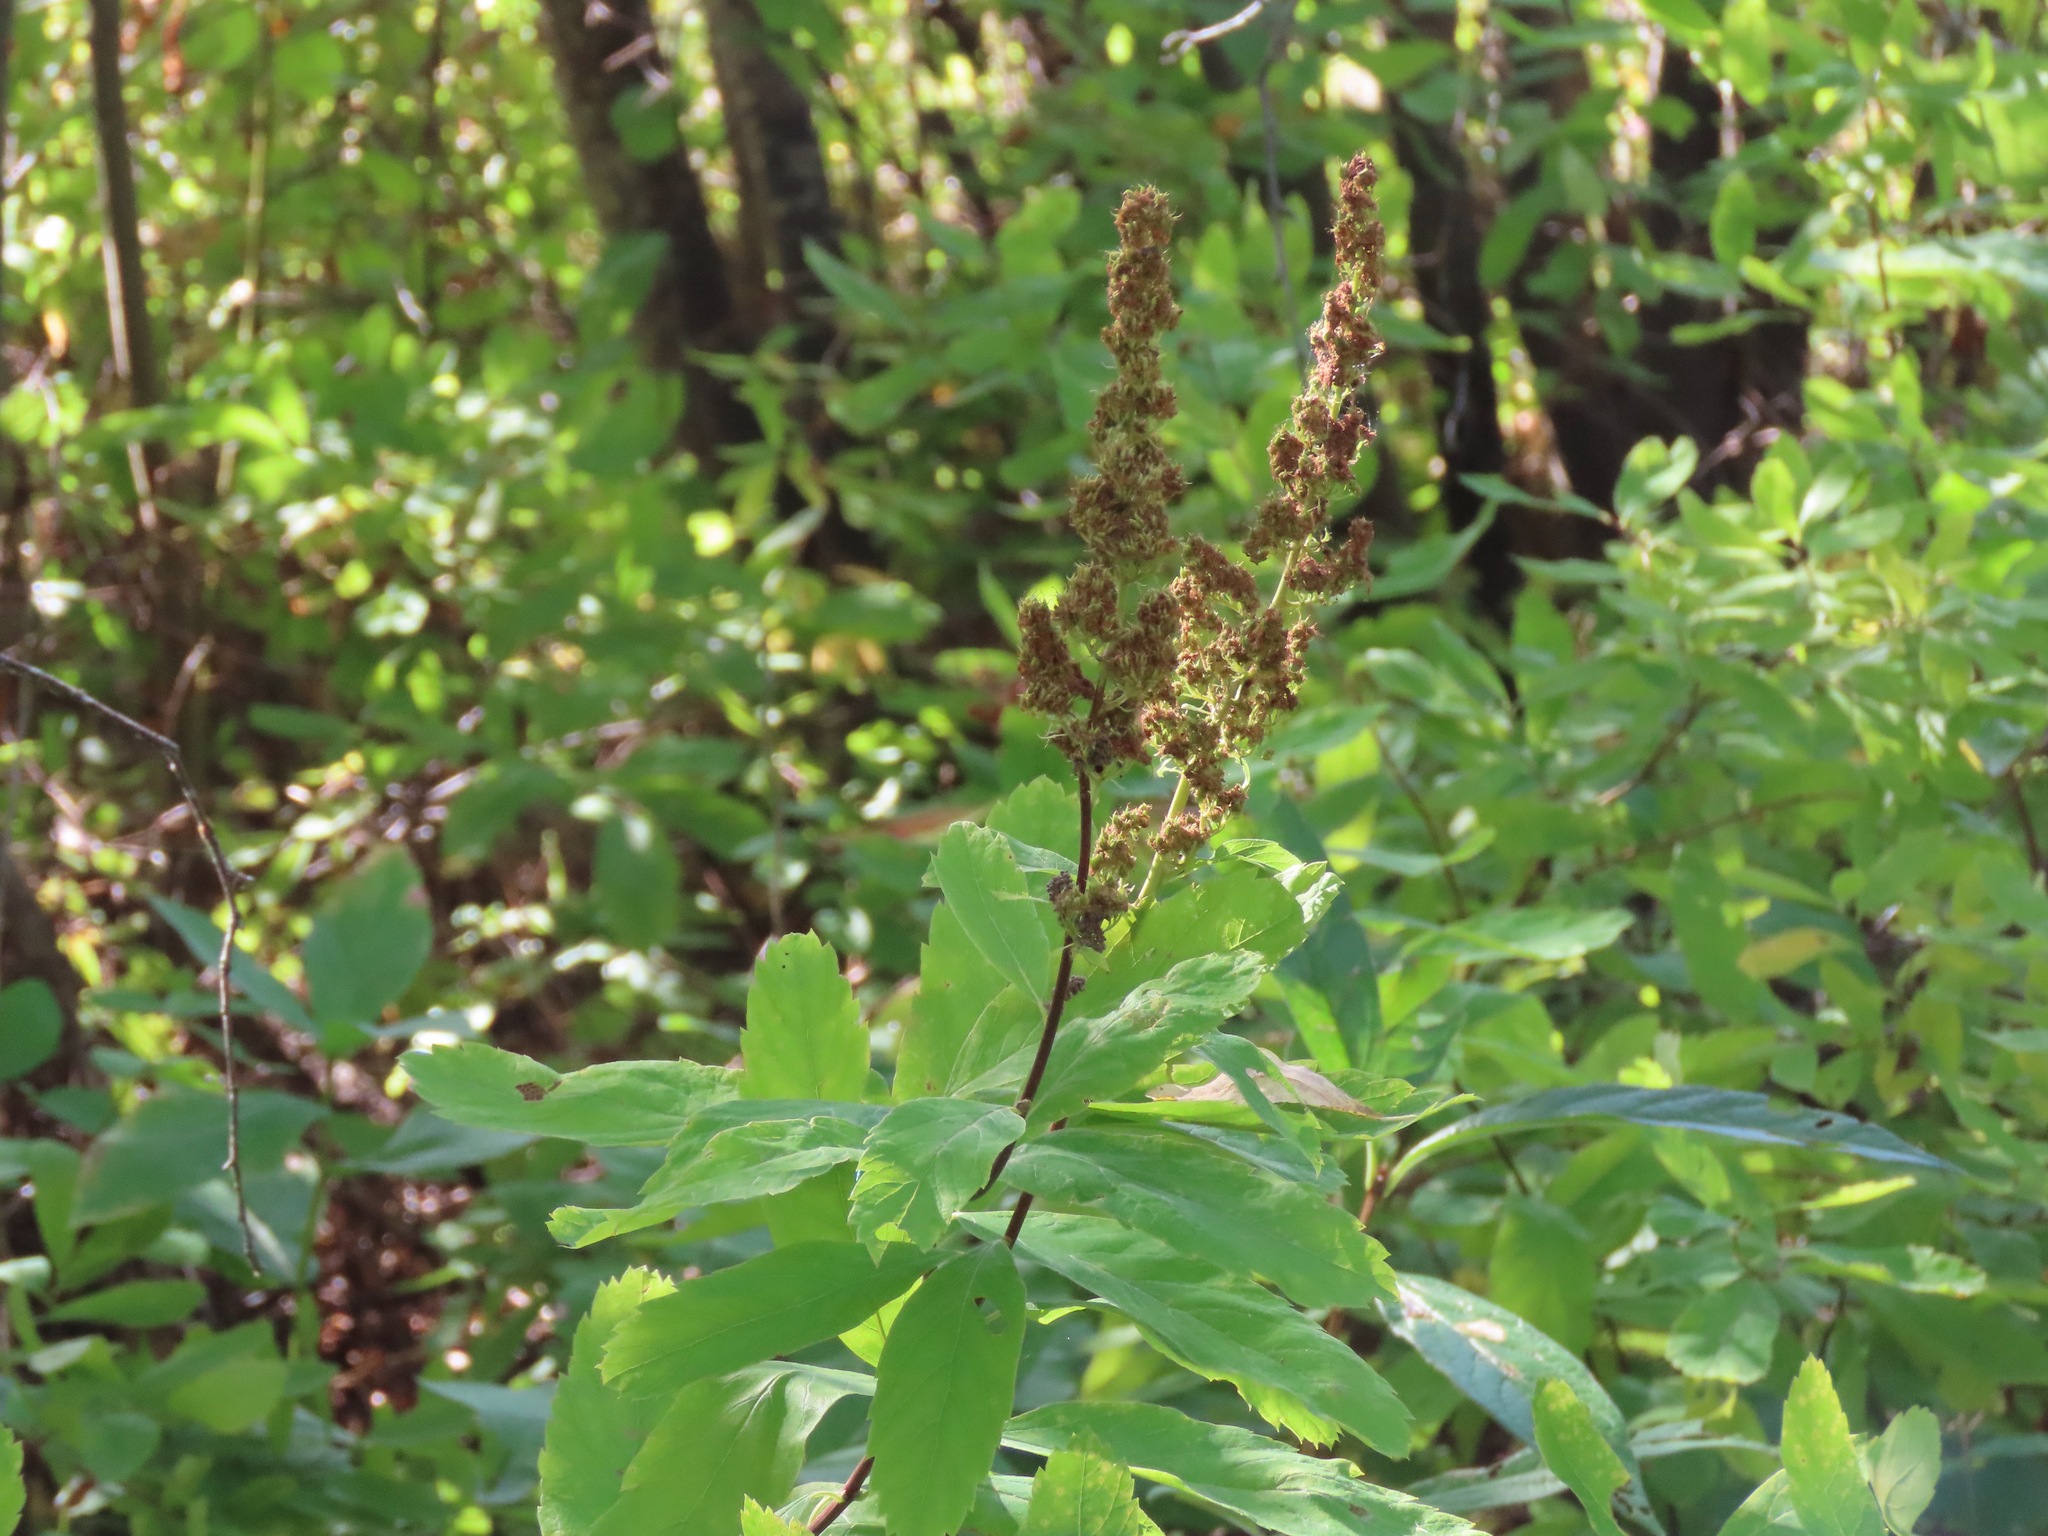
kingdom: Plantae
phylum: Tracheophyta
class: Magnoliopsida
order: Rosales
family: Rosaceae
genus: Spiraea
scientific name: Spiraea douglasii
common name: Steeplebush
